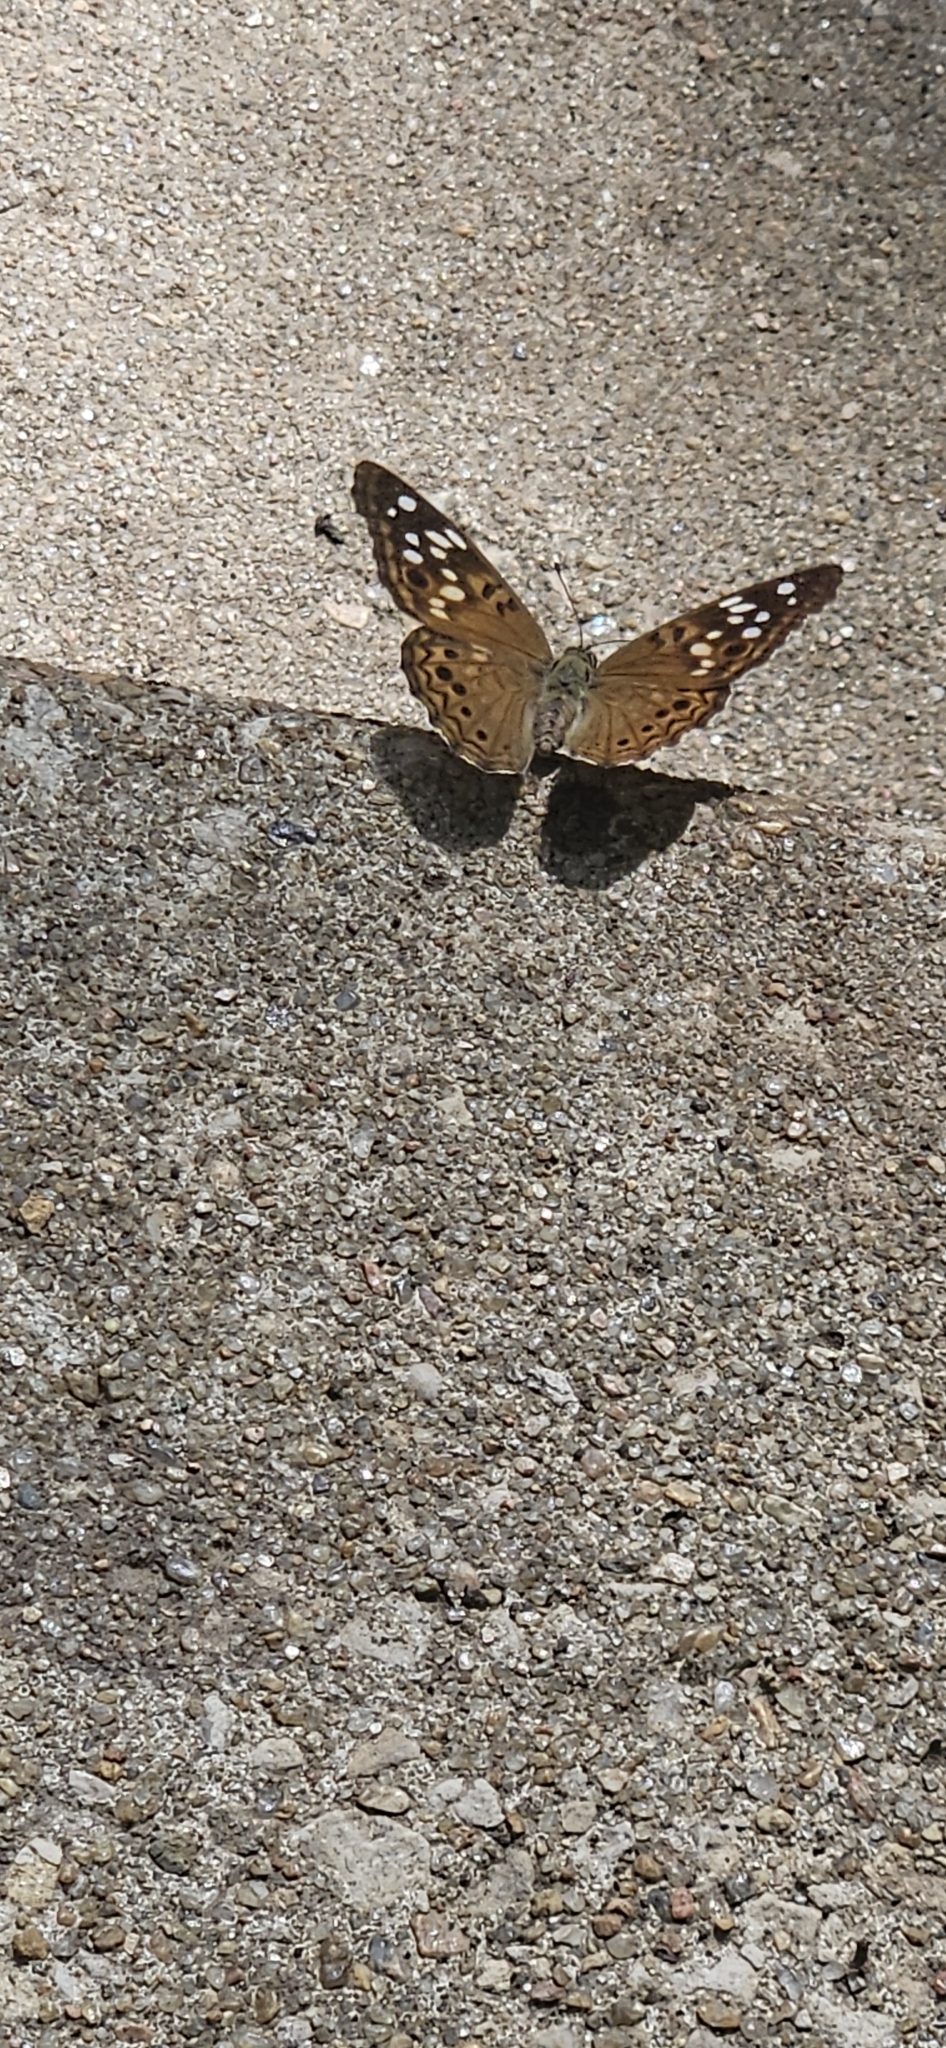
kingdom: Animalia
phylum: Arthropoda
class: Insecta
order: Lepidoptera
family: Nymphalidae
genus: Asterocampa
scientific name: Asterocampa celtis
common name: Hackberry emperor
